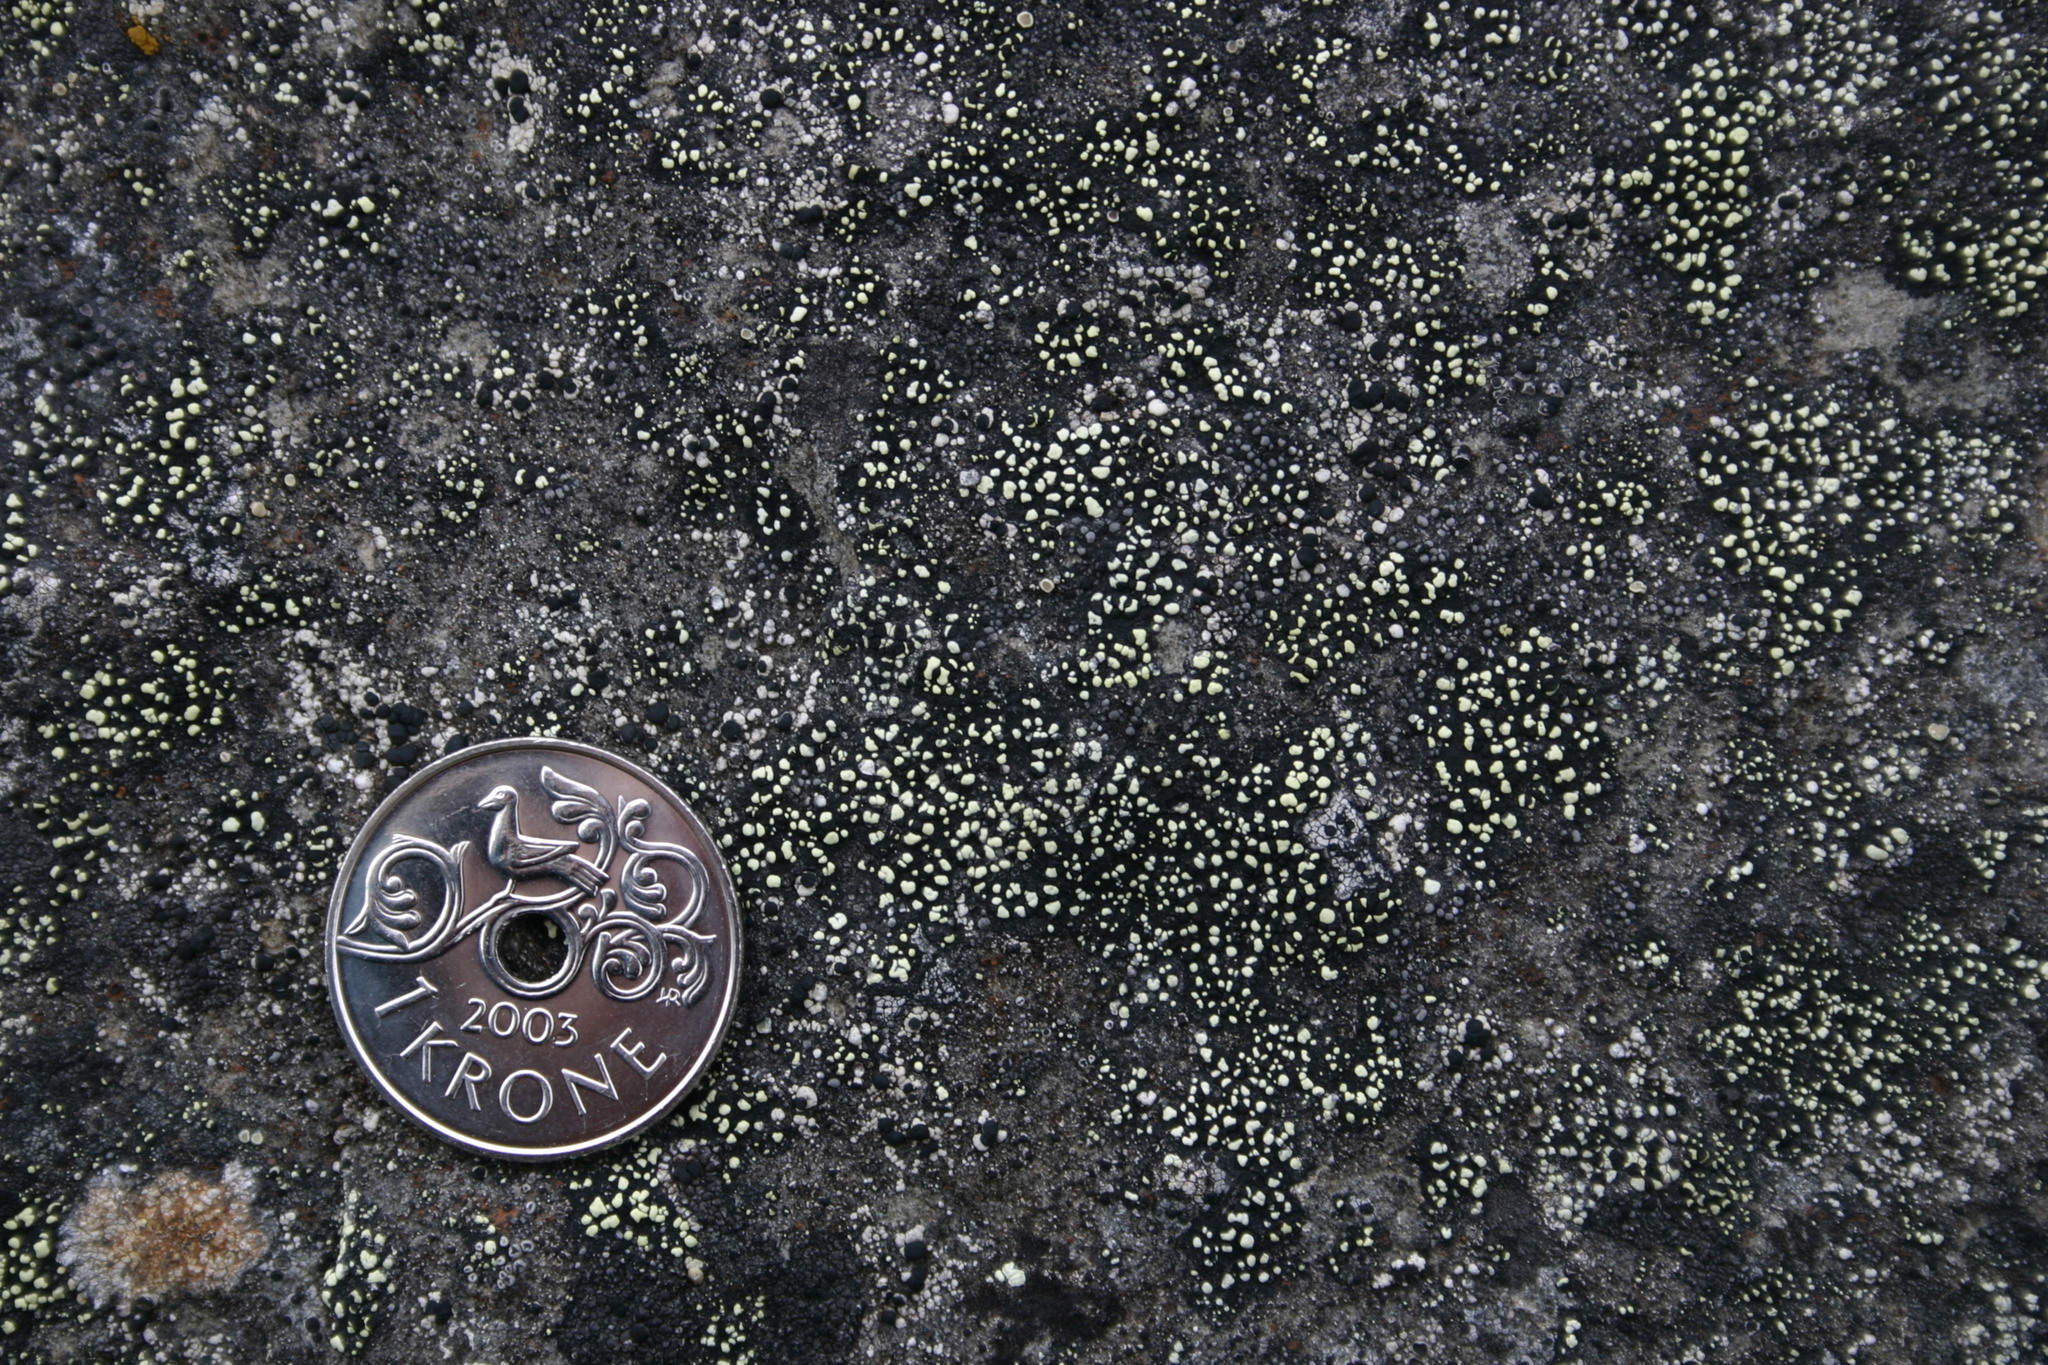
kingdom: Fungi
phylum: Ascomycota
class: Lecanoromycetes
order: Rhizocarpales
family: Rhizocarpaceae
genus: Rhizocarpon
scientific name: Rhizocarpon
